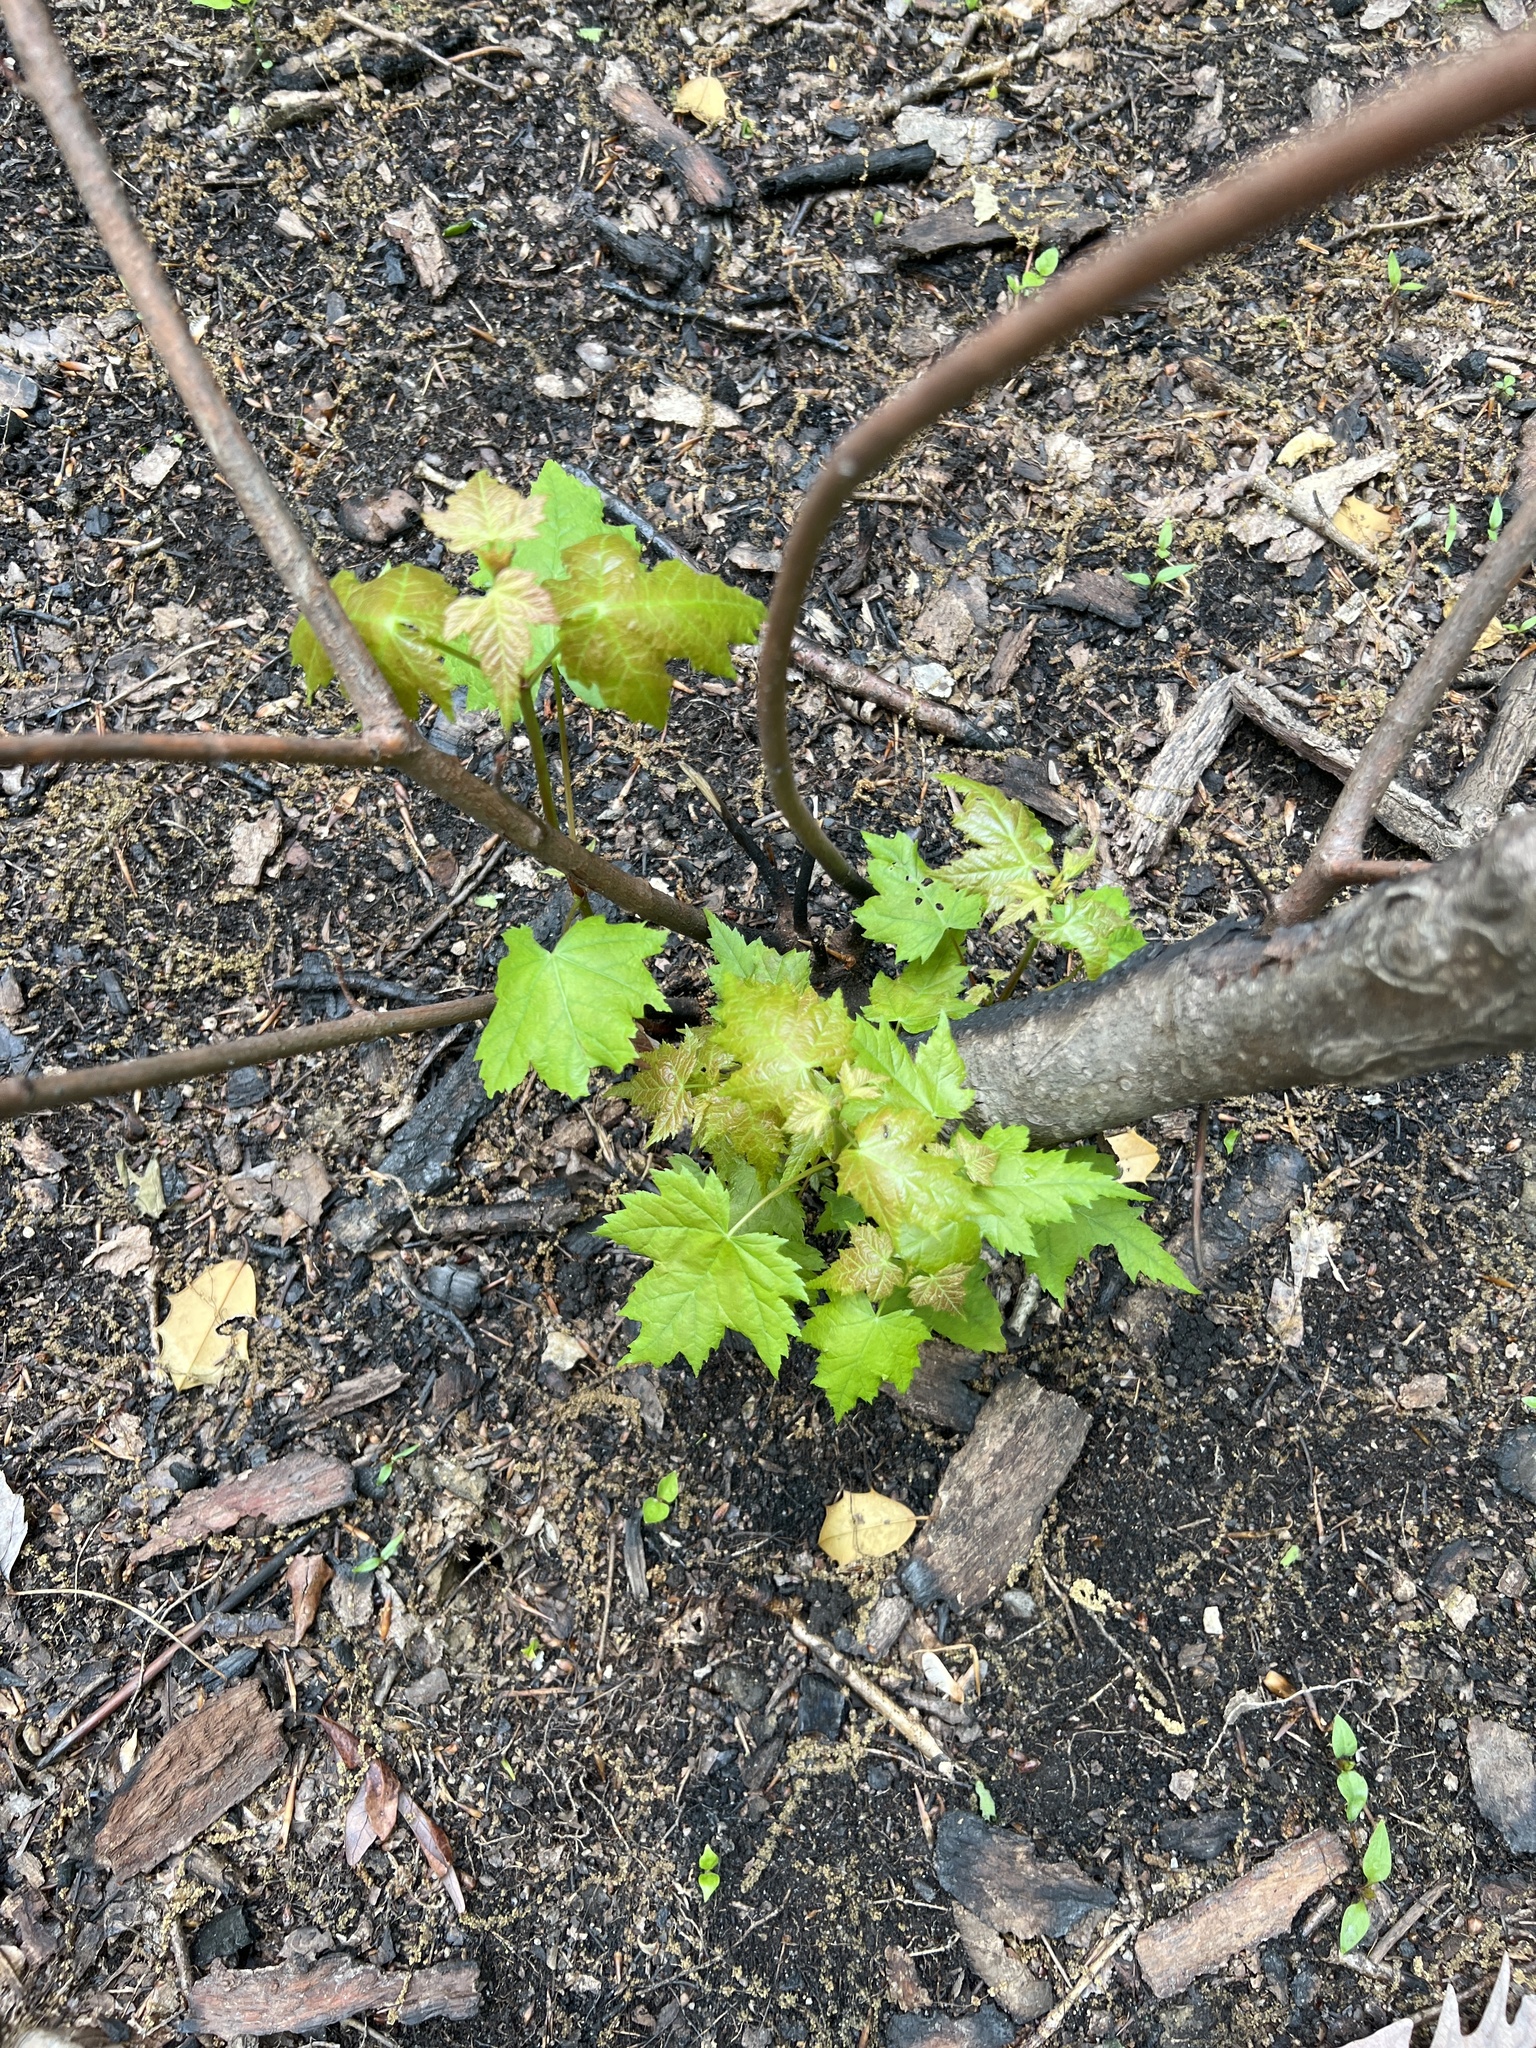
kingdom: Plantae
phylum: Tracheophyta
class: Magnoliopsida
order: Sapindales
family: Sapindaceae
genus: Acer
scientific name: Acer rubrum
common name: Red maple
